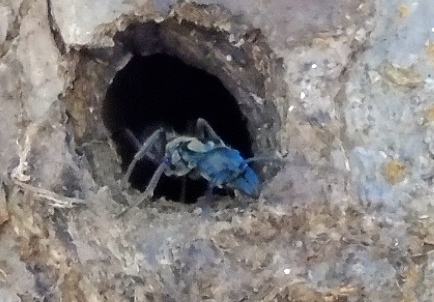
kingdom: Animalia
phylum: Arthropoda
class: Insecta
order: Hymenoptera
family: Formicidae
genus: Pachycondyla
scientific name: Pachycondyla villosa
